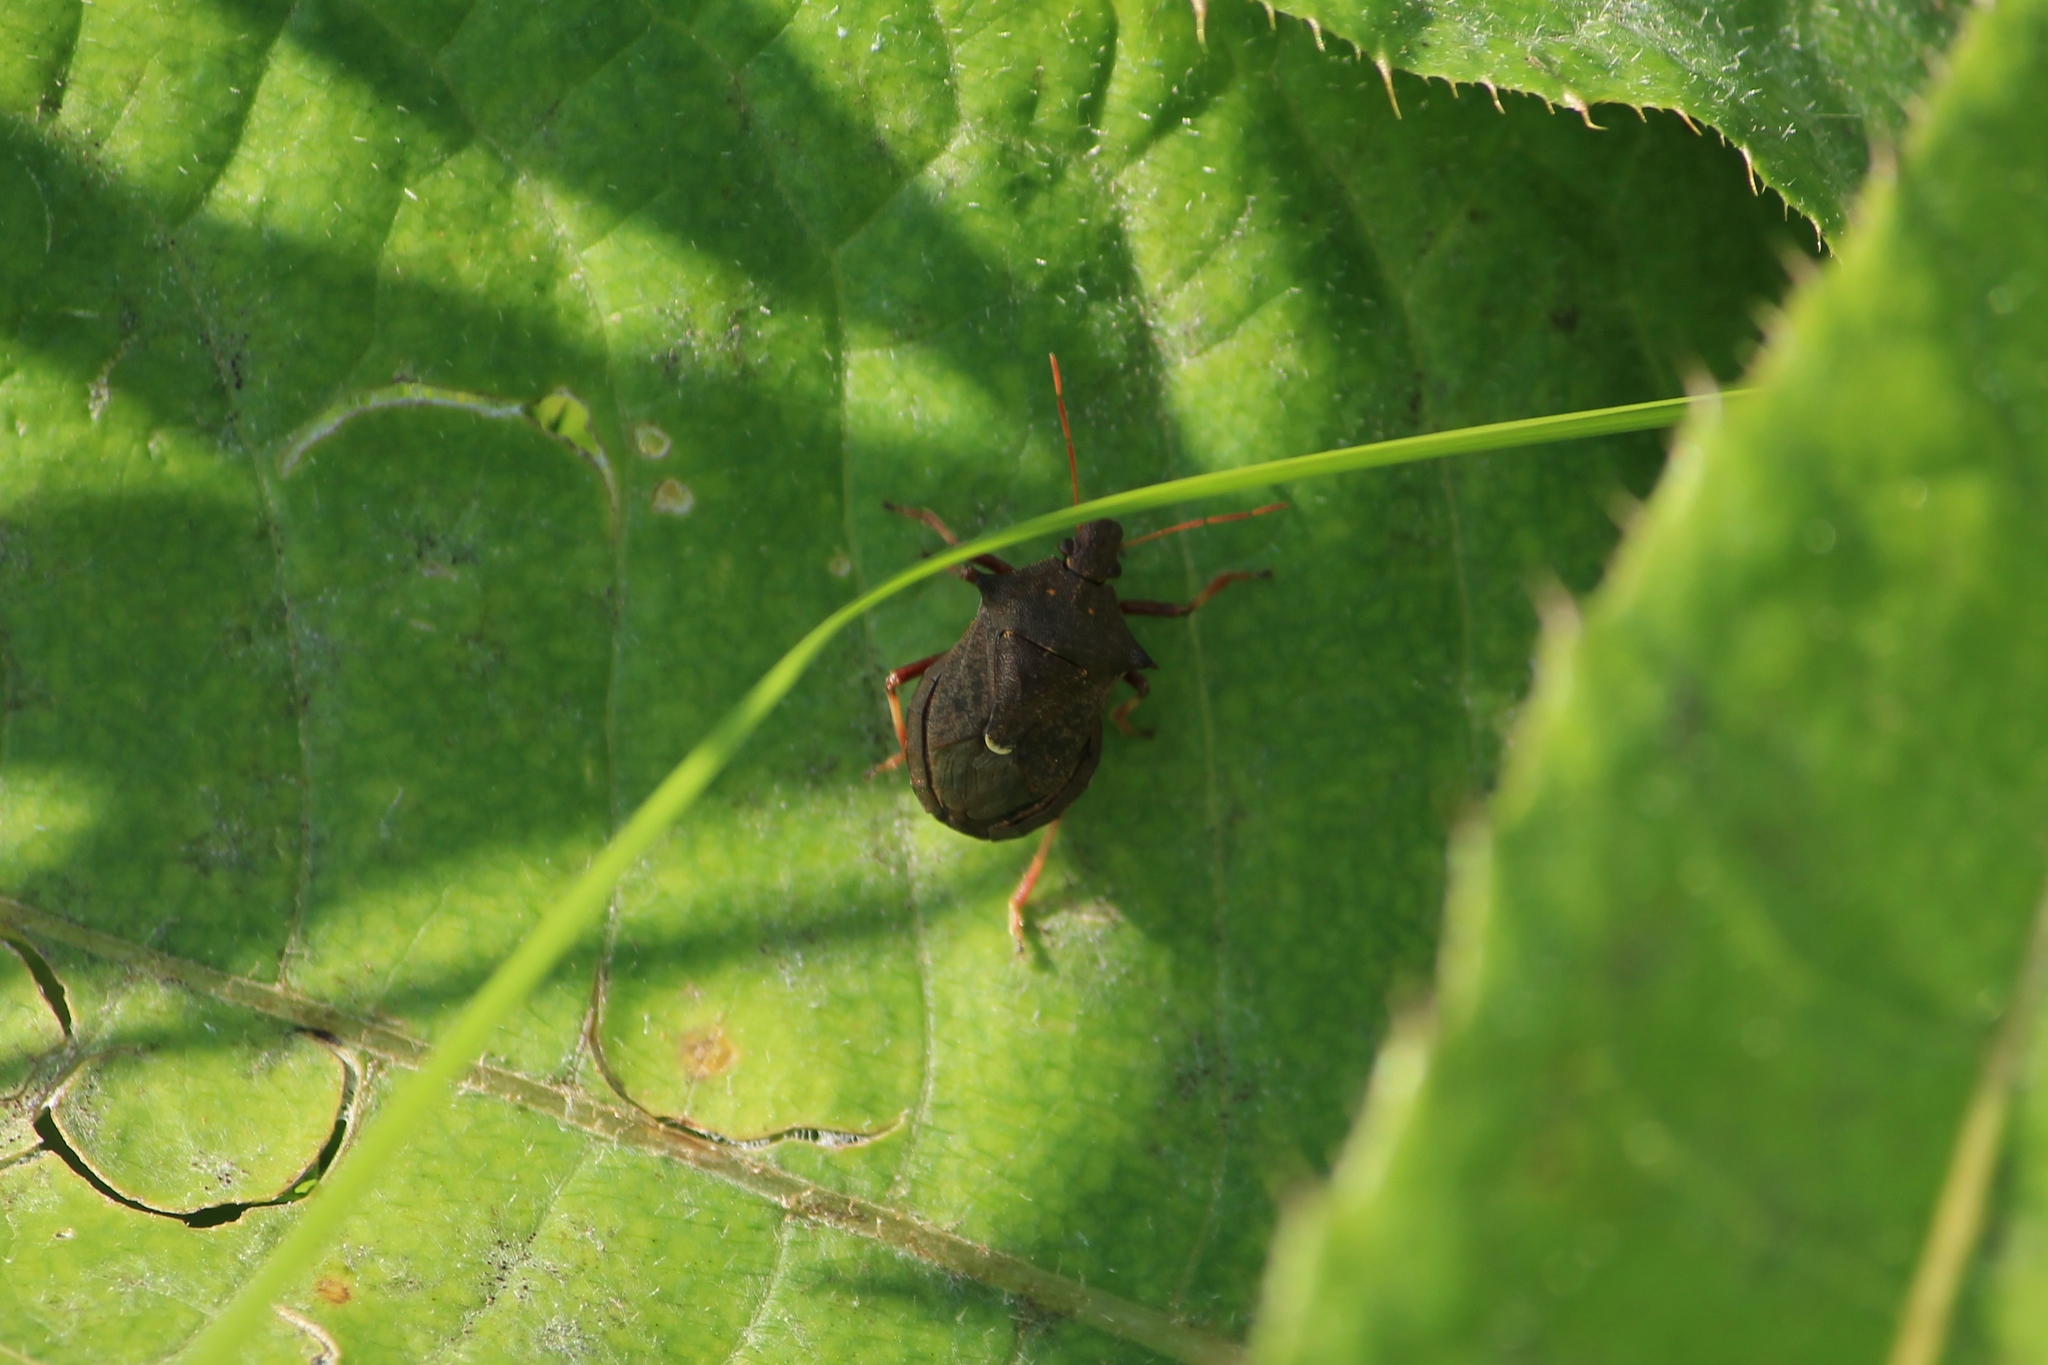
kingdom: Animalia
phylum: Arthropoda
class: Insecta
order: Hemiptera
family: Pentatomidae
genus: Picromerus
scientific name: Picromerus bidens
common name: Spiked shieldbug
